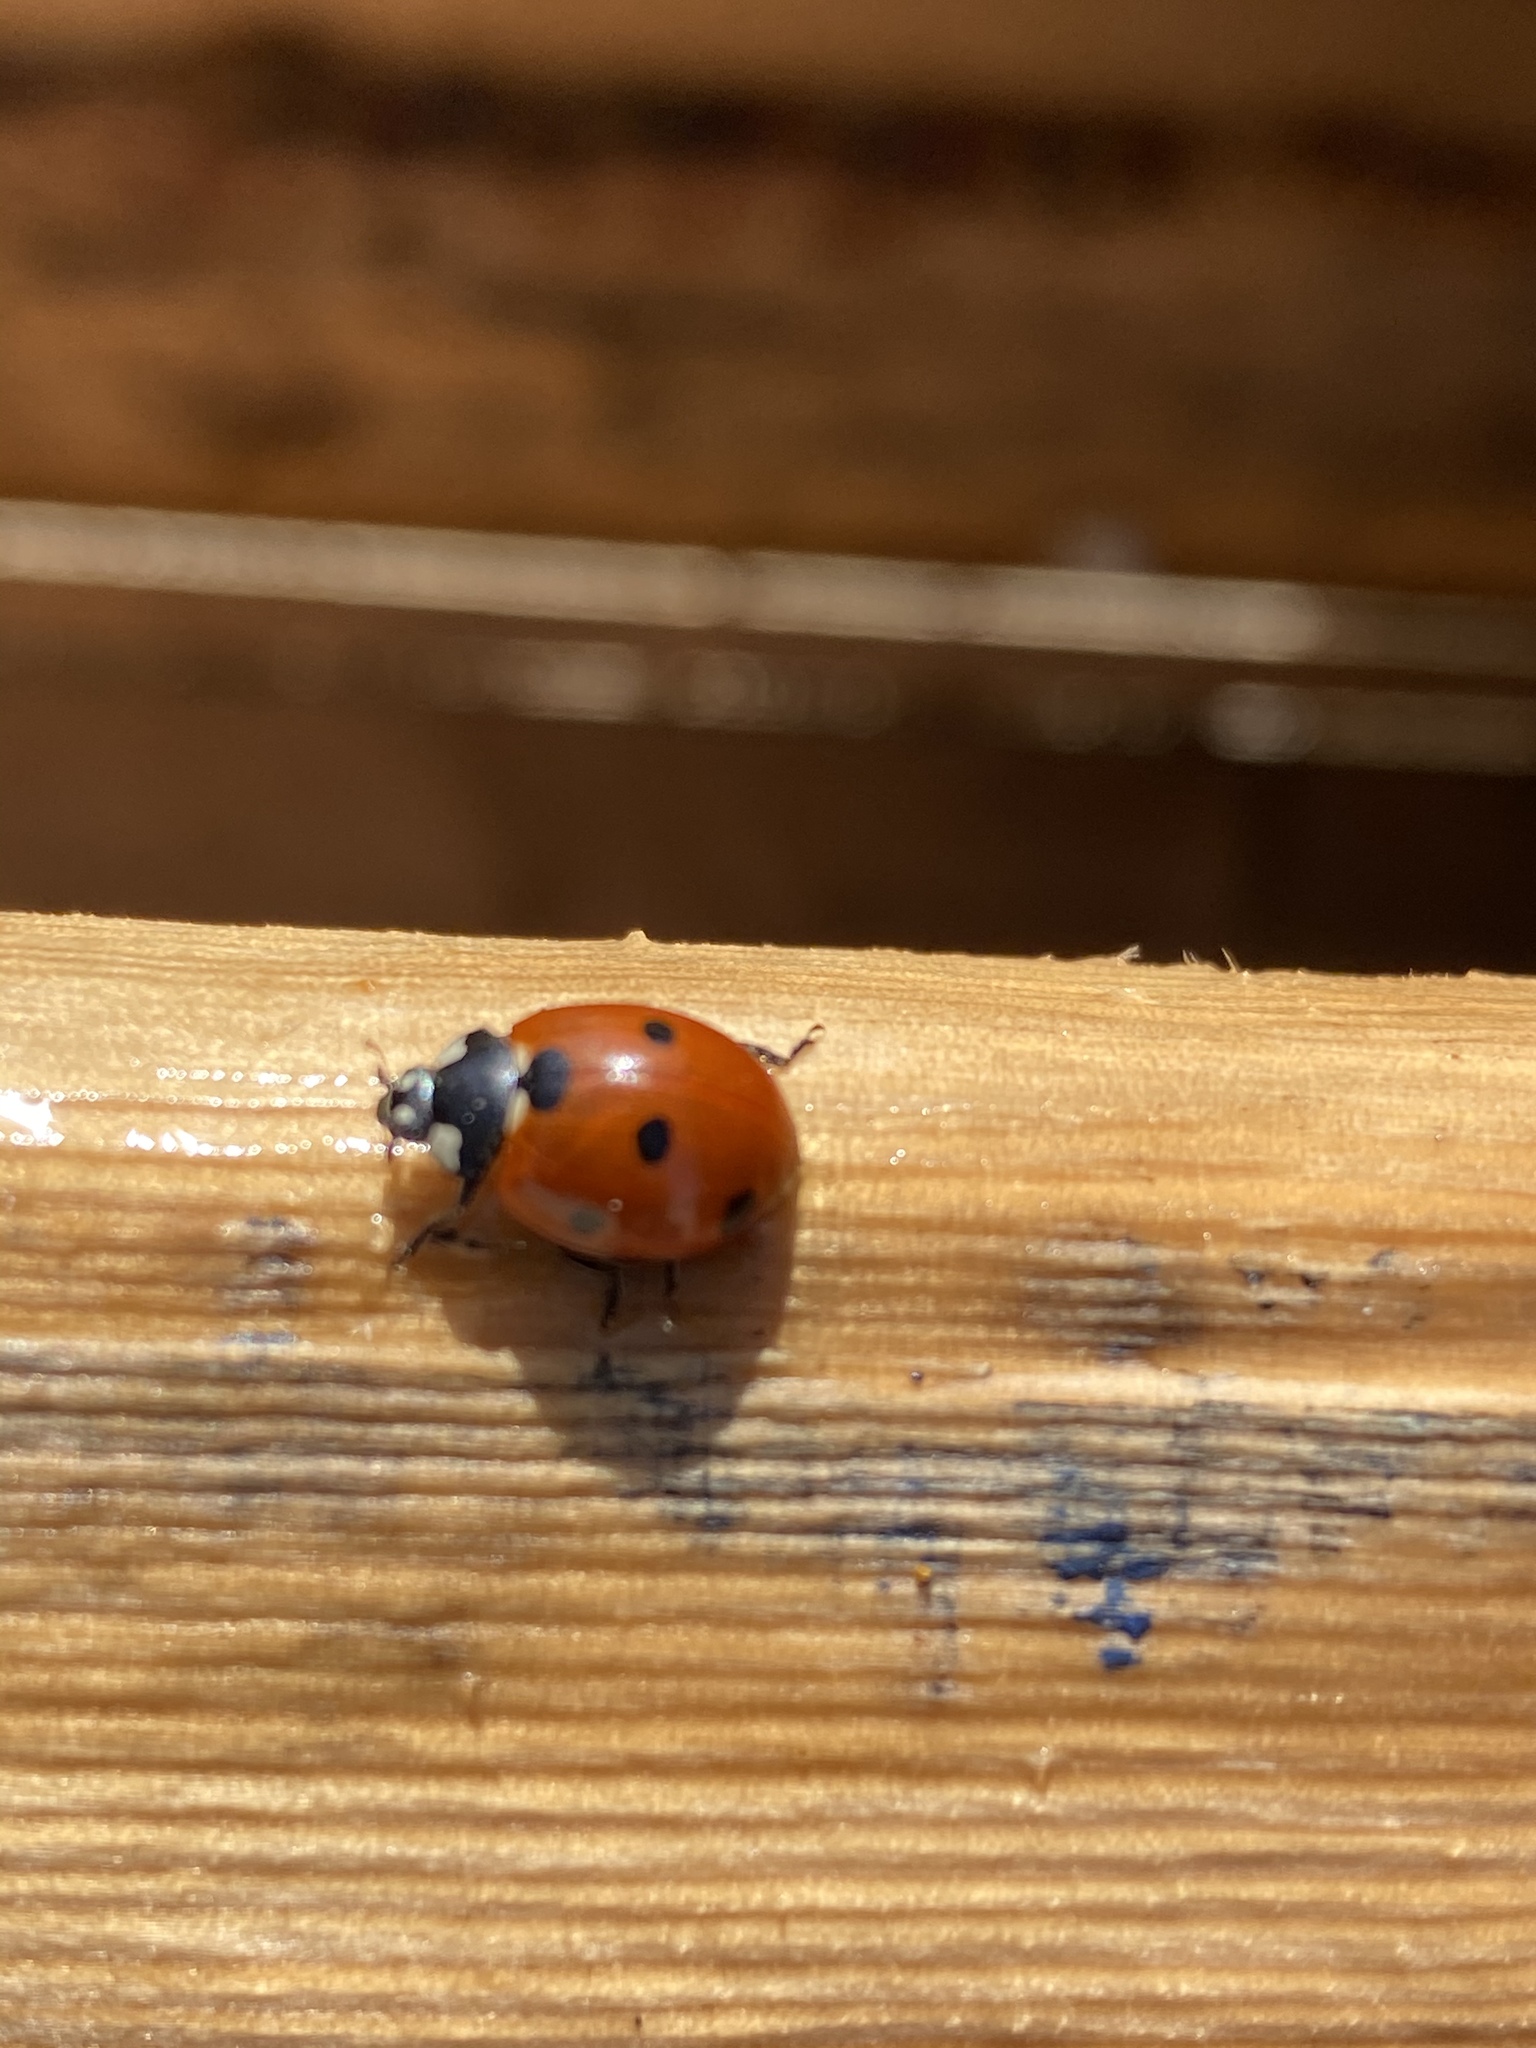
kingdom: Animalia
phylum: Arthropoda
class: Insecta
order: Coleoptera
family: Coccinellidae
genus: Coccinella
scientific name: Coccinella septempunctata
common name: Sevenspotted lady beetle
